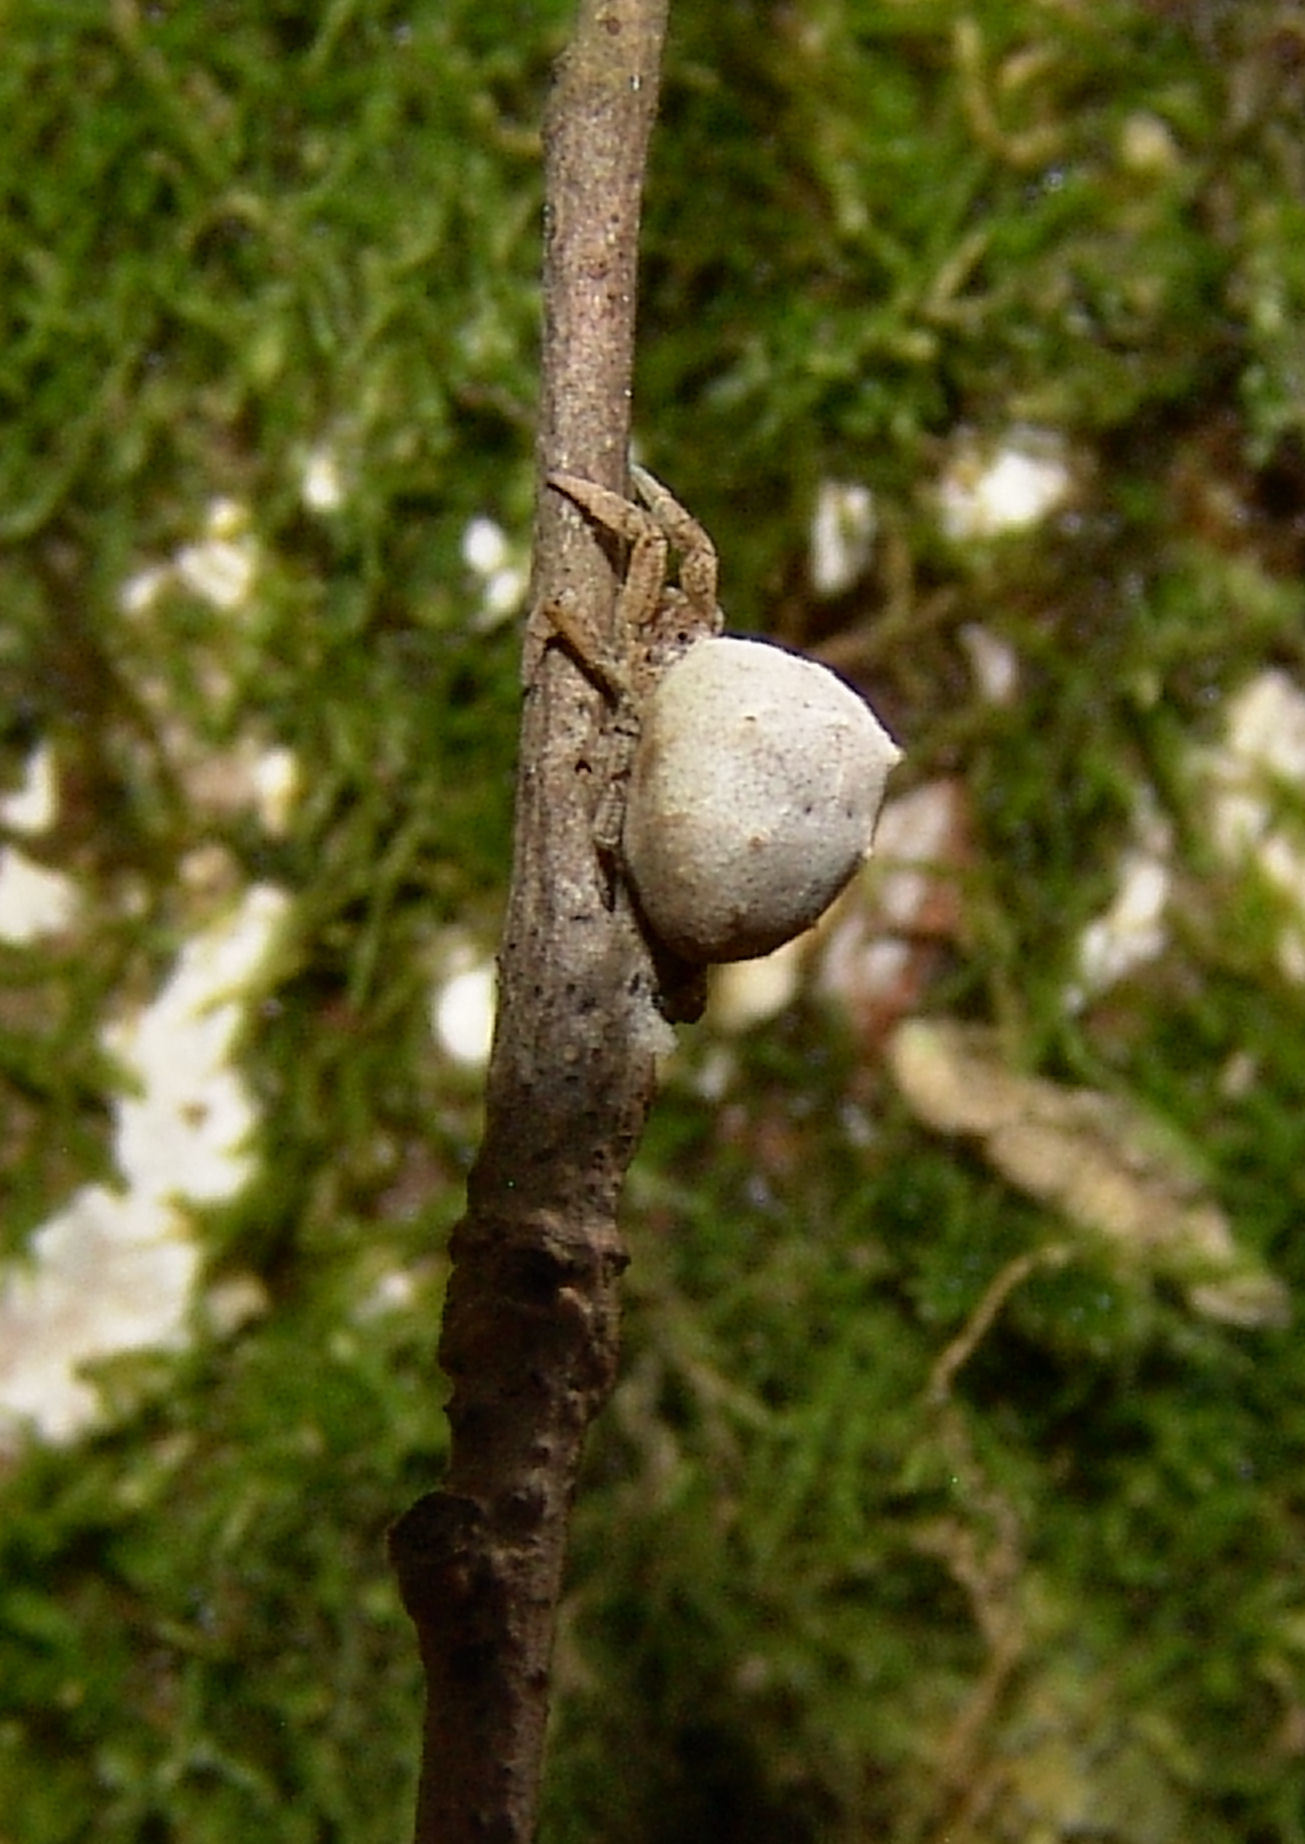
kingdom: Animalia
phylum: Arthropoda
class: Arachnida
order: Araneae
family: Uloboridae
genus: Hyptiotes
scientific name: Hyptiotes cavatus
